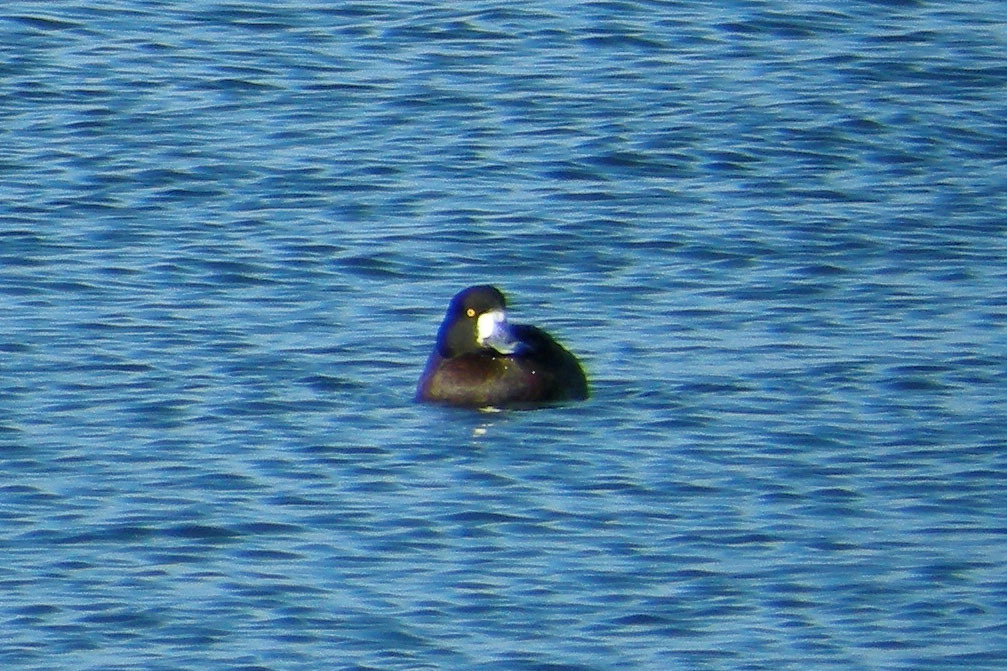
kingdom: Animalia
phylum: Chordata
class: Aves
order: Anseriformes
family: Anatidae
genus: Aythya
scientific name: Aythya marila
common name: Greater scaup
